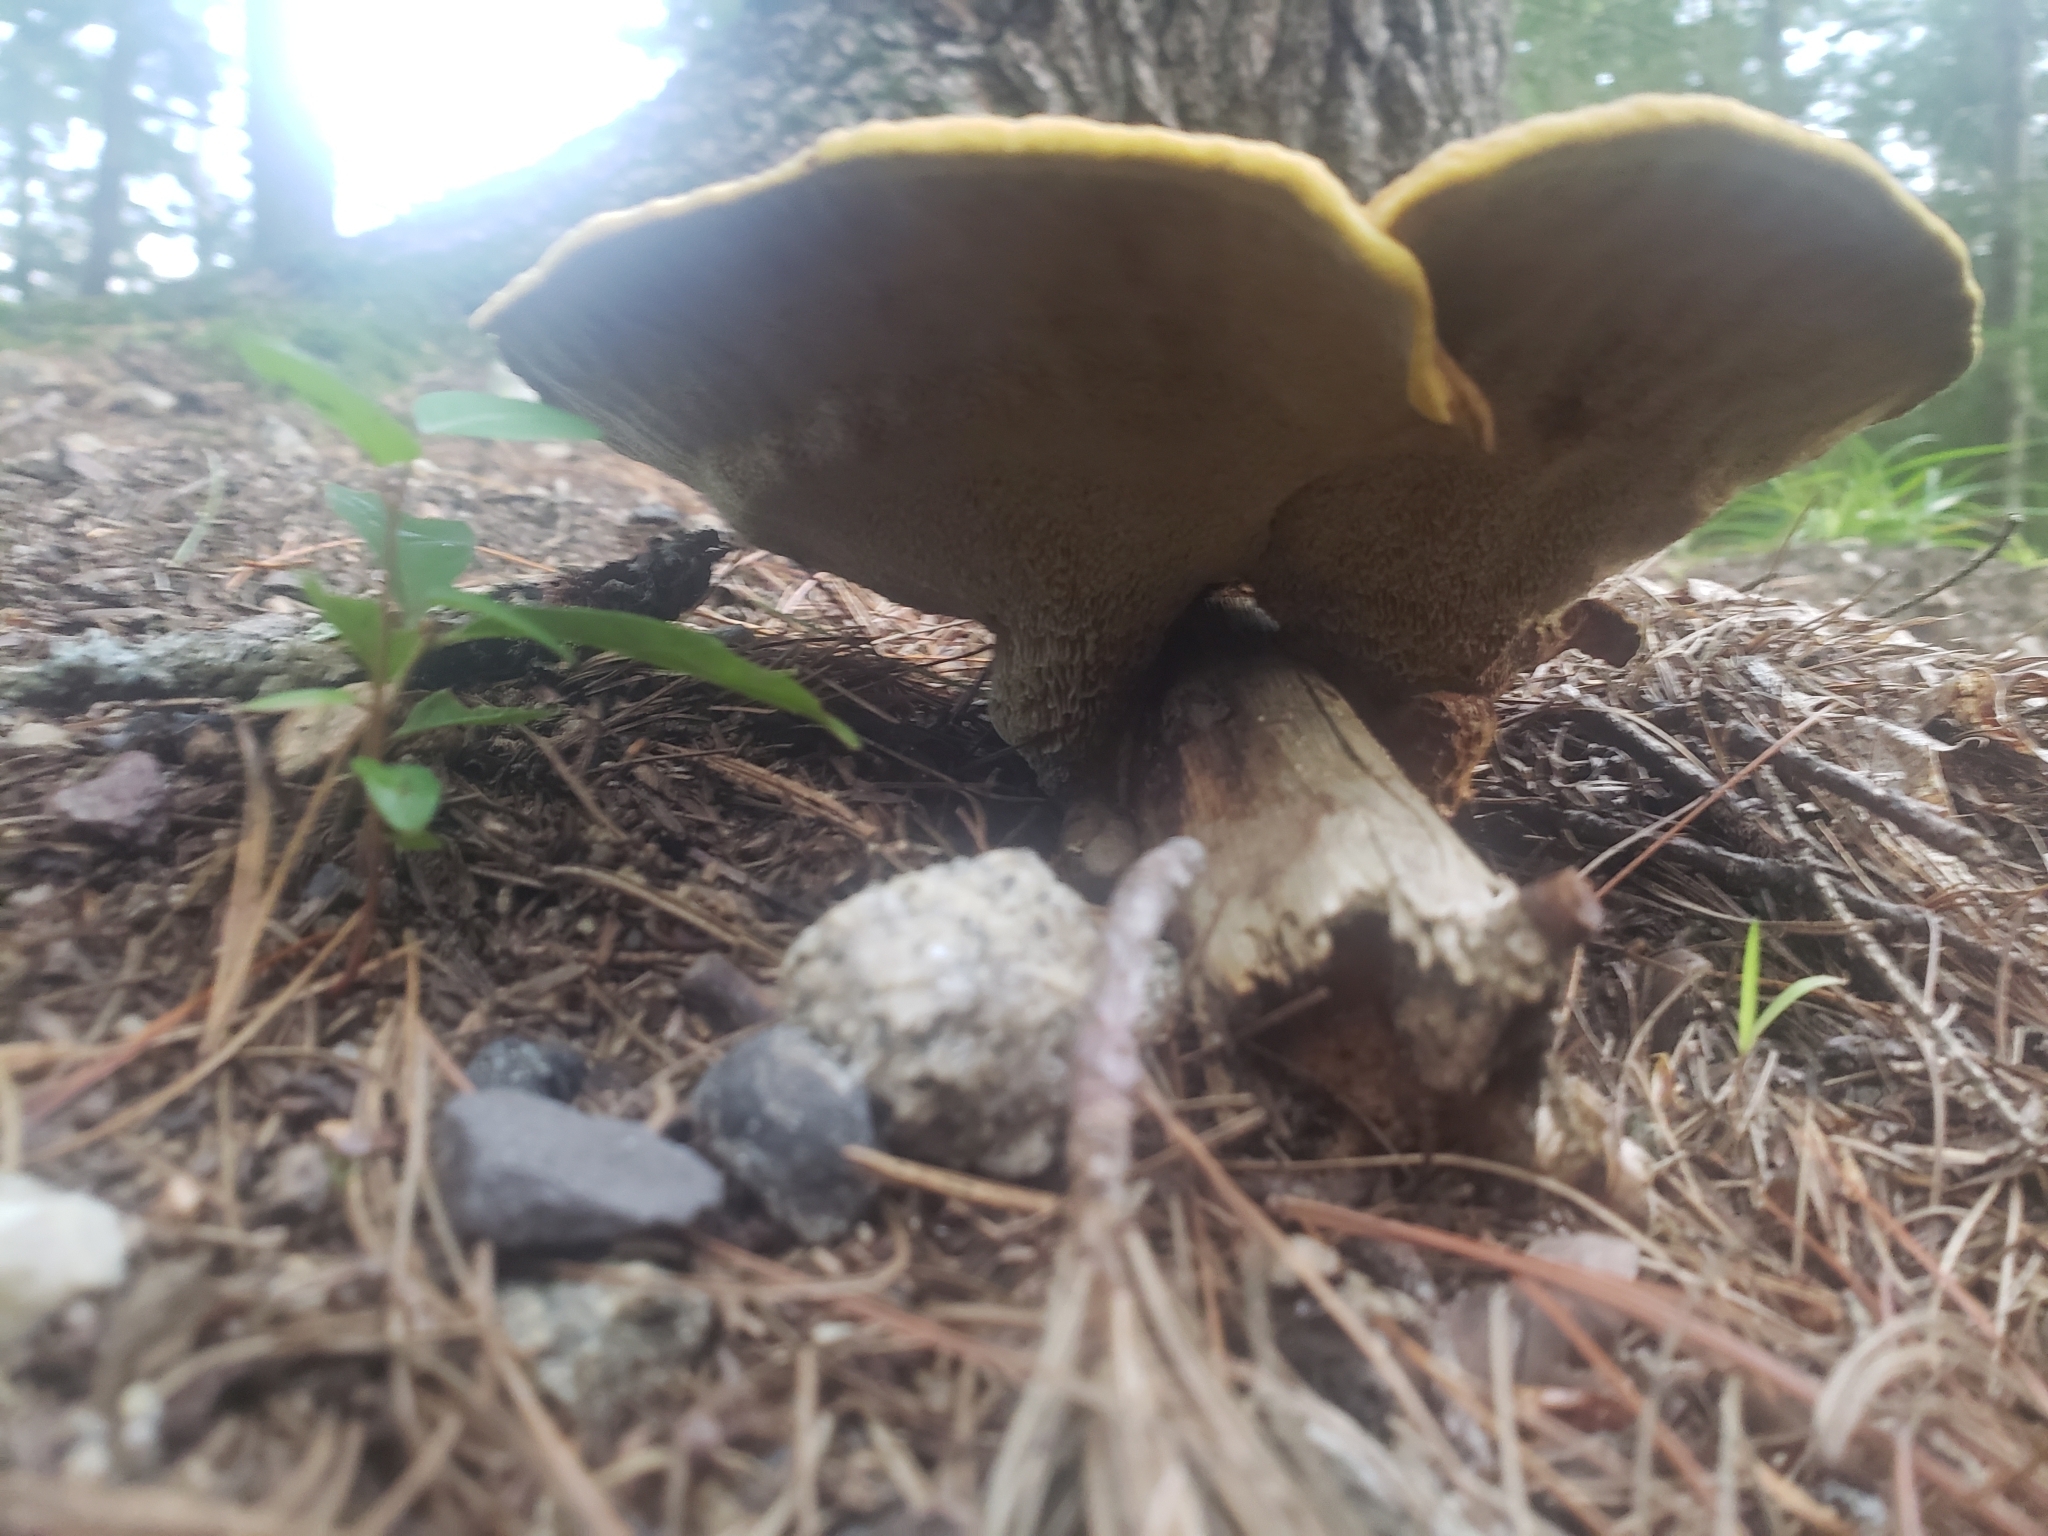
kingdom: Fungi
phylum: Basidiomycota
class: Agaricomycetes
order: Polyporales
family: Laetiporaceae
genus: Phaeolus
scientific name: Phaeolus schweinitzii
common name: Dyer's mazegill
